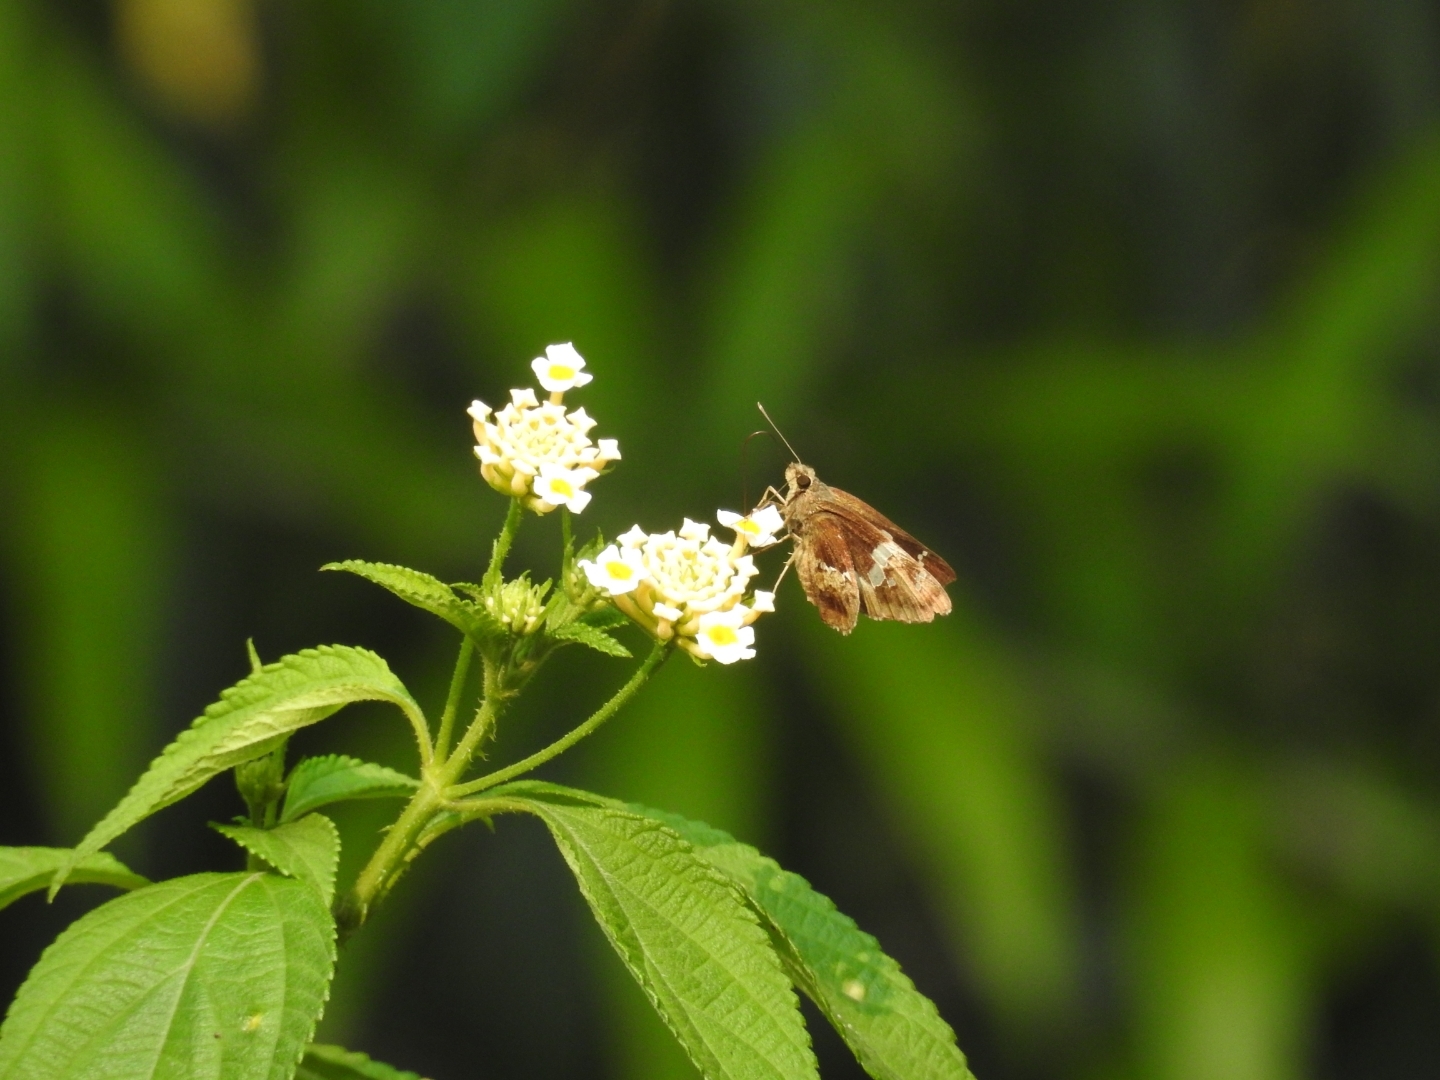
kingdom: Animalia
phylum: Arthropoda
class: Insecta
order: Lepidoptera
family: Hesperiidae
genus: Hyarotis
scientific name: Hyarotis adrastus
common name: Tree flitter
